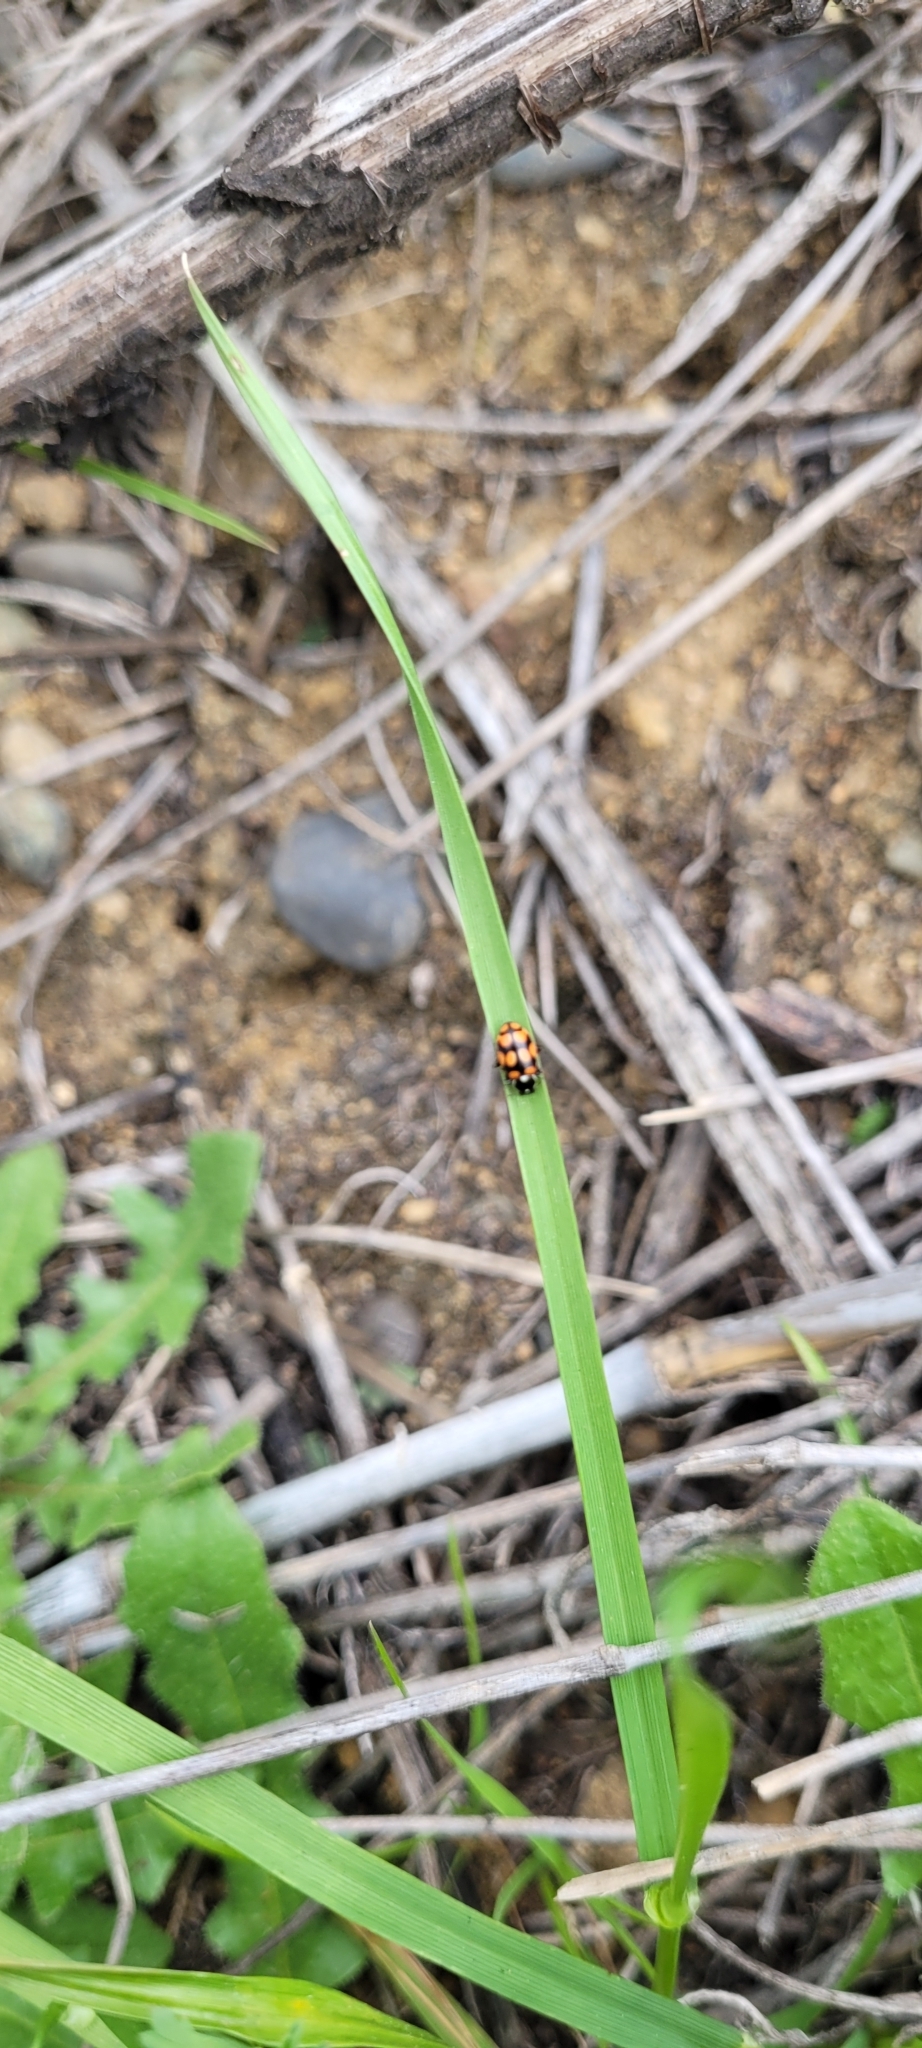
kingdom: Animalia
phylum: Arthropoda
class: Insecta
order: Coleoptera
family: Coccinellidae
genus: Eriopis
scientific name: Eriopis chilensis
